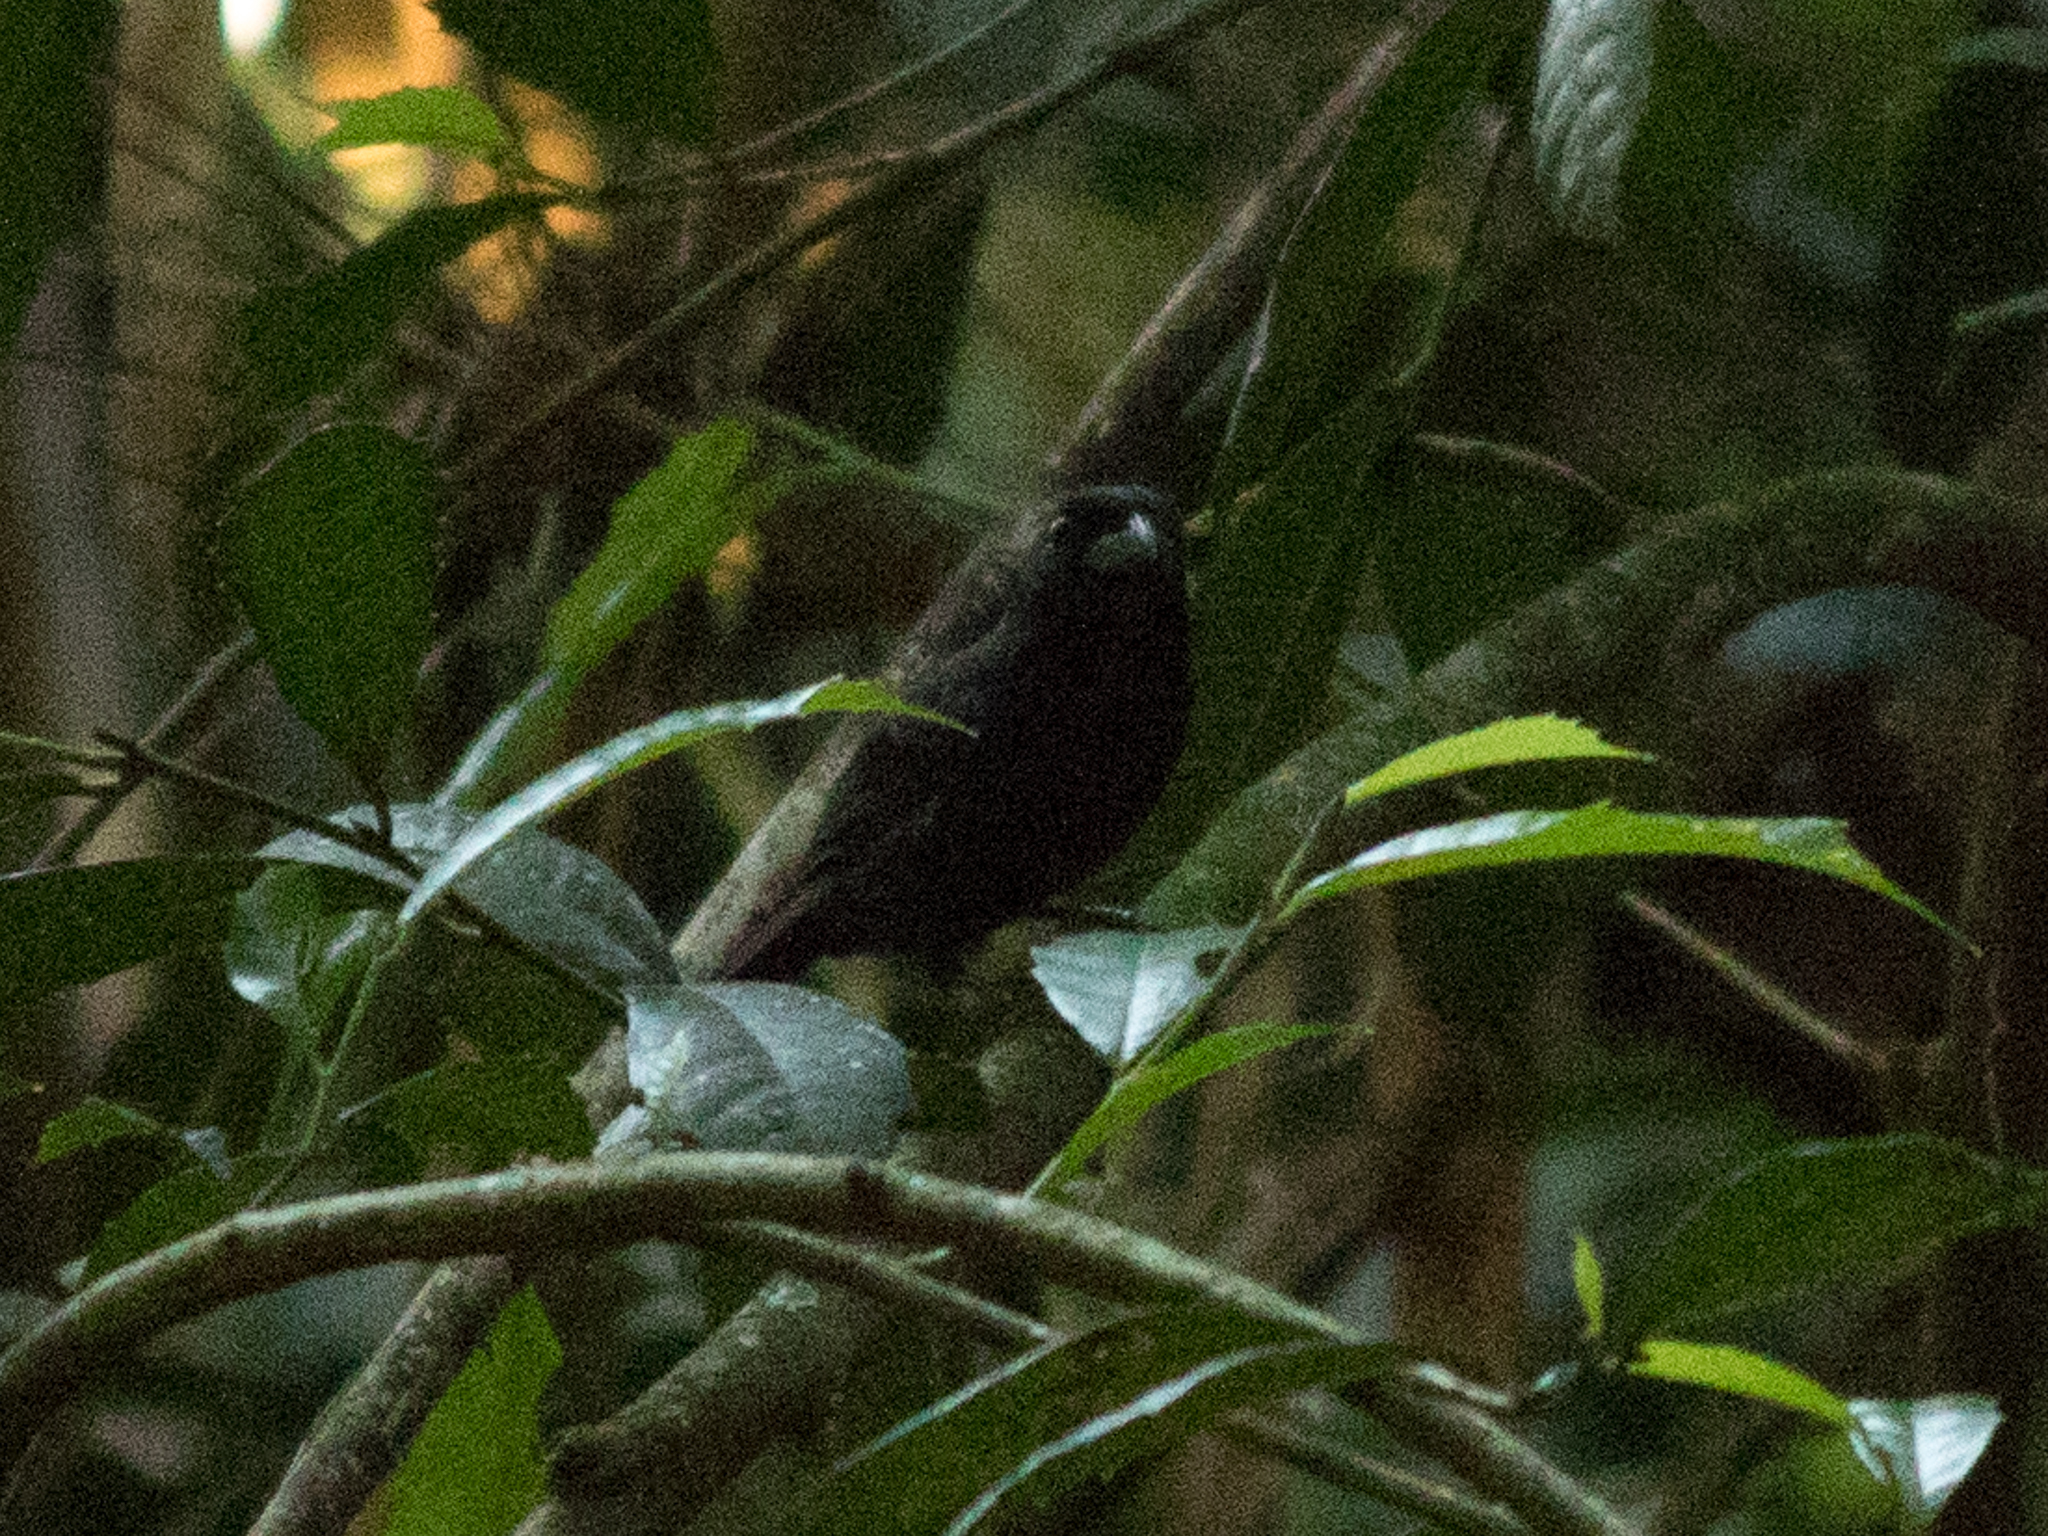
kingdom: Animalia
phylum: Chordata
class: Aves
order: Passeriformes
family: Cardinalidae
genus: Amaurospiza
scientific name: Amaurospiza moesta
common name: Blackish-blue seedeater
